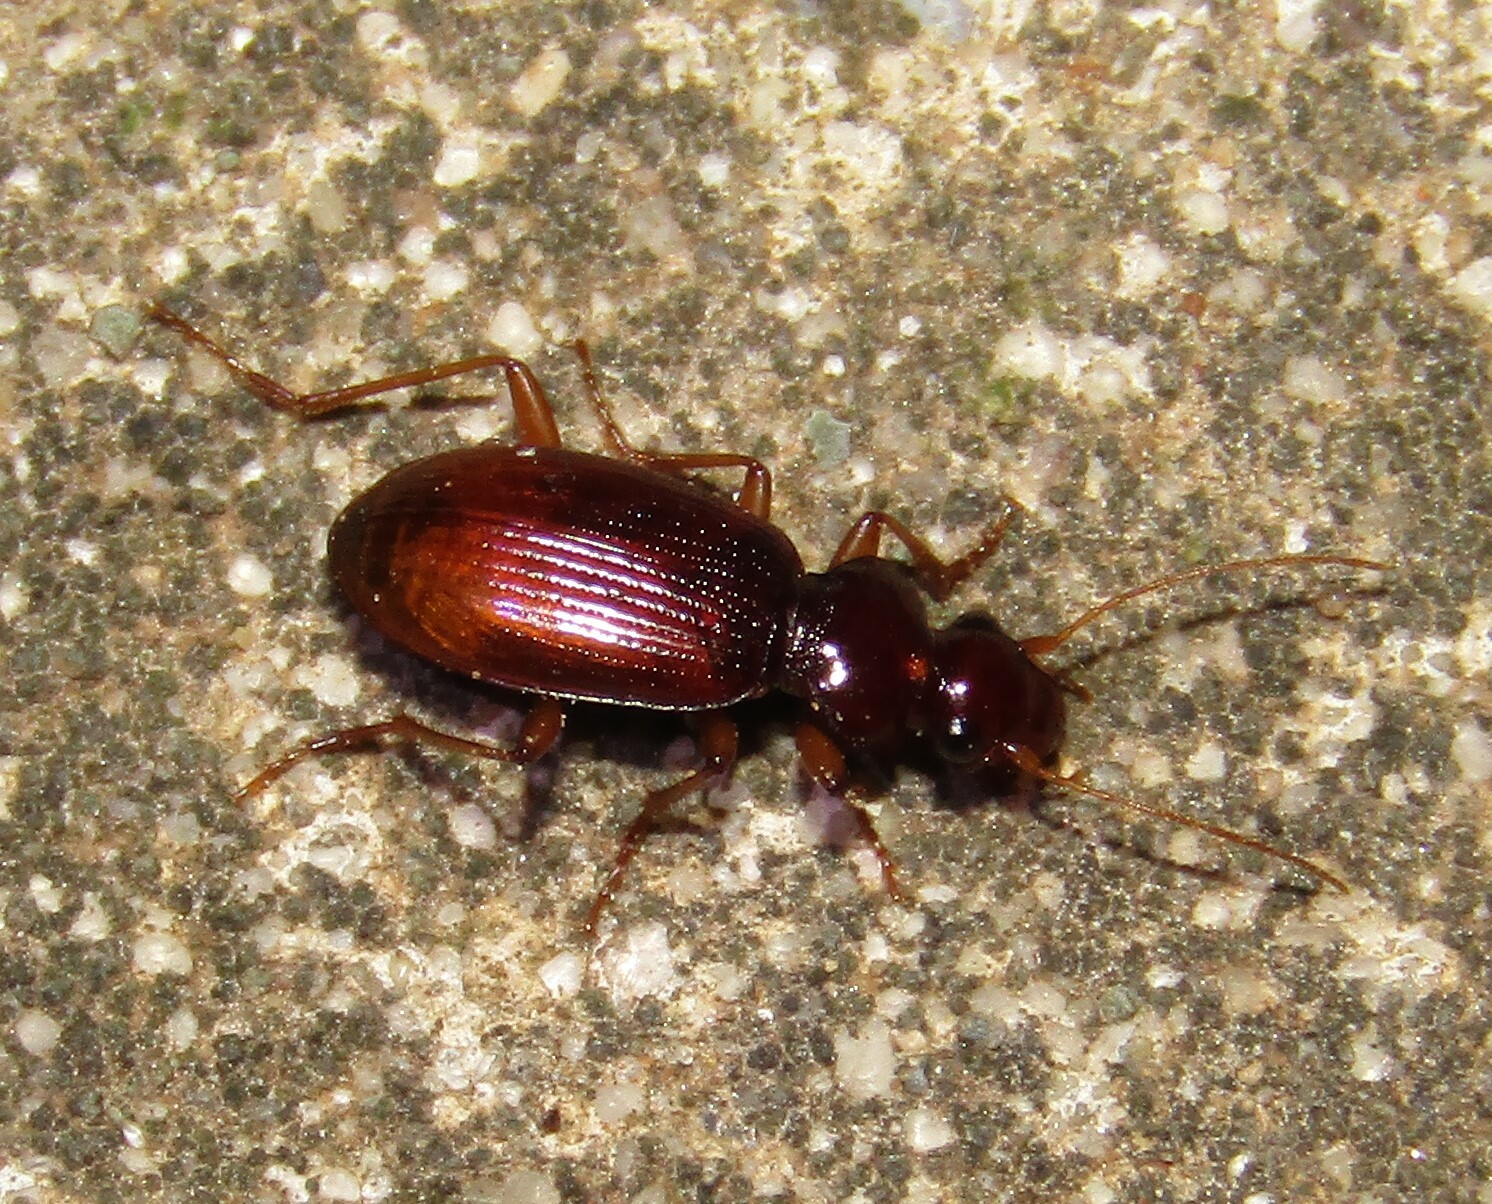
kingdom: Animalia
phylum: Arthropoda
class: Insecta
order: Coleoptera
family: Carabidae
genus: Leistus
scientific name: Leistus ferrugineus
